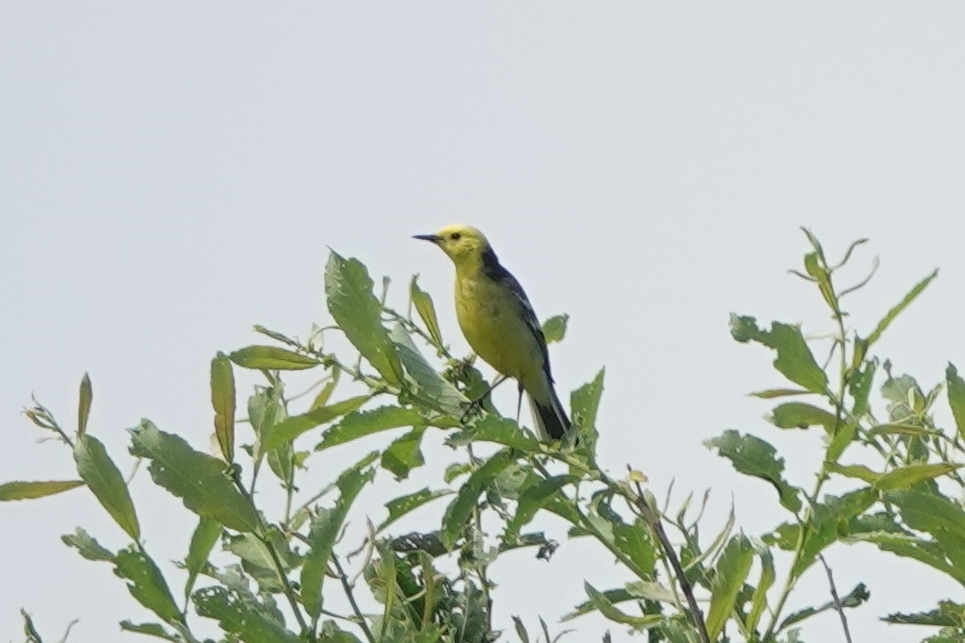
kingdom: Animalia
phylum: Chordata
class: Aves
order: Passeriformes
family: Motacillidae
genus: Motacilla
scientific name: Motacilla citreola
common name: Citrine wagtail
